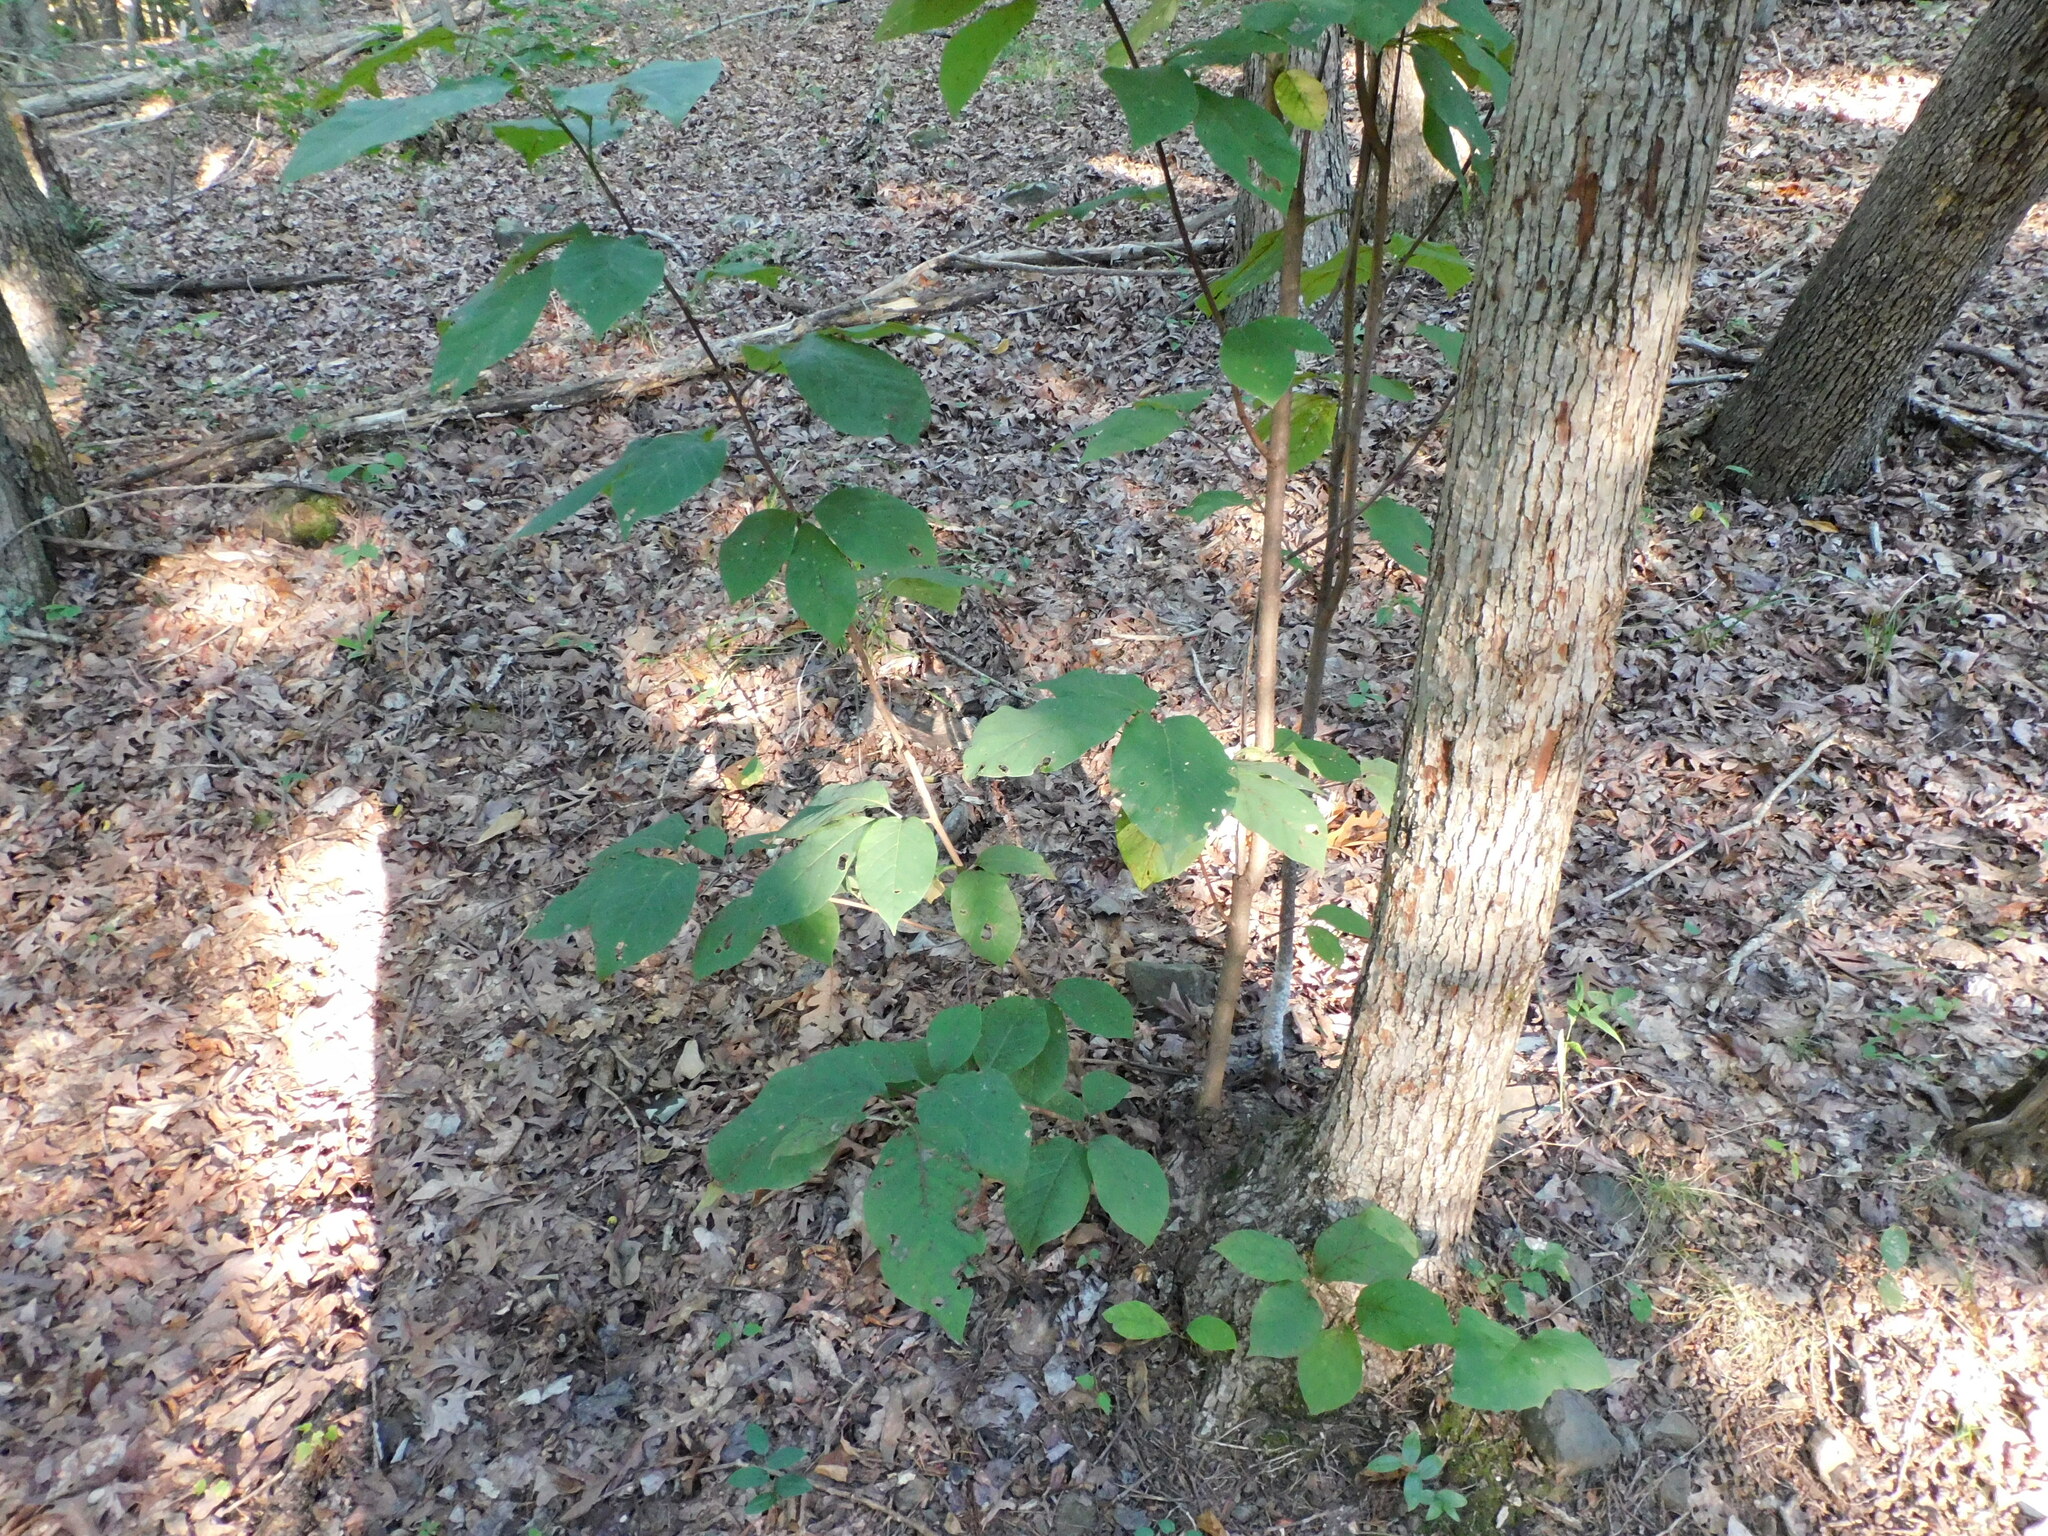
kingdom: Plantae
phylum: Tracheophyta
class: Magnoliopsida
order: Magnoliales
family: Magnoliaceae
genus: Magnolia
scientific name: Magnolia acuminata
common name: Cucumber magnolia
